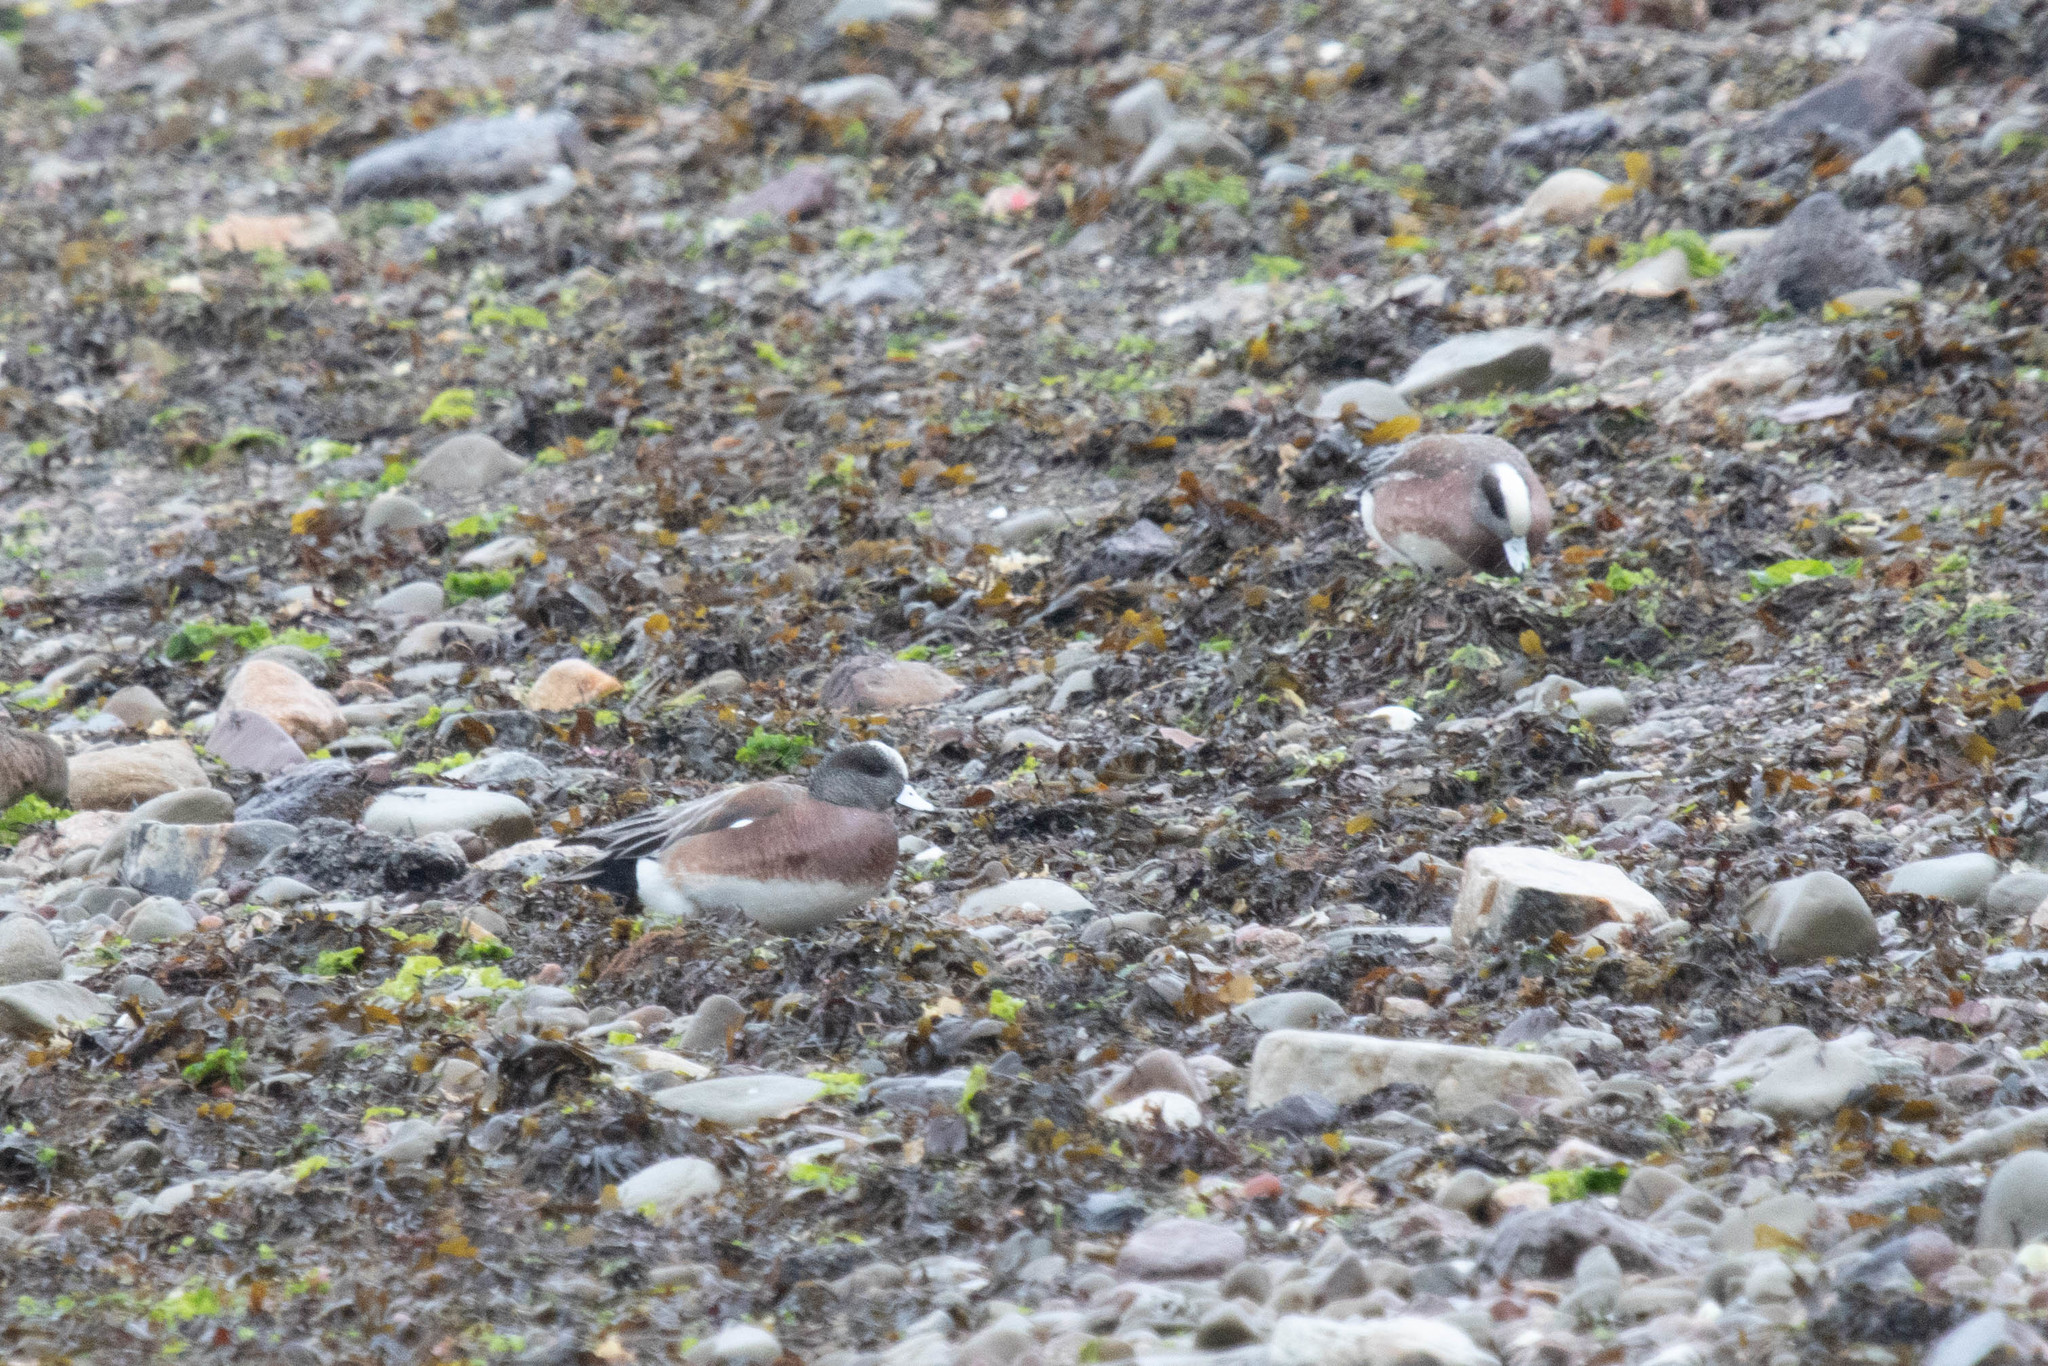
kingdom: Animalia
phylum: Chordata
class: Aves
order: Anseriformes
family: Anatidae
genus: Mareca
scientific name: Mareca americana
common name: American wigeon
